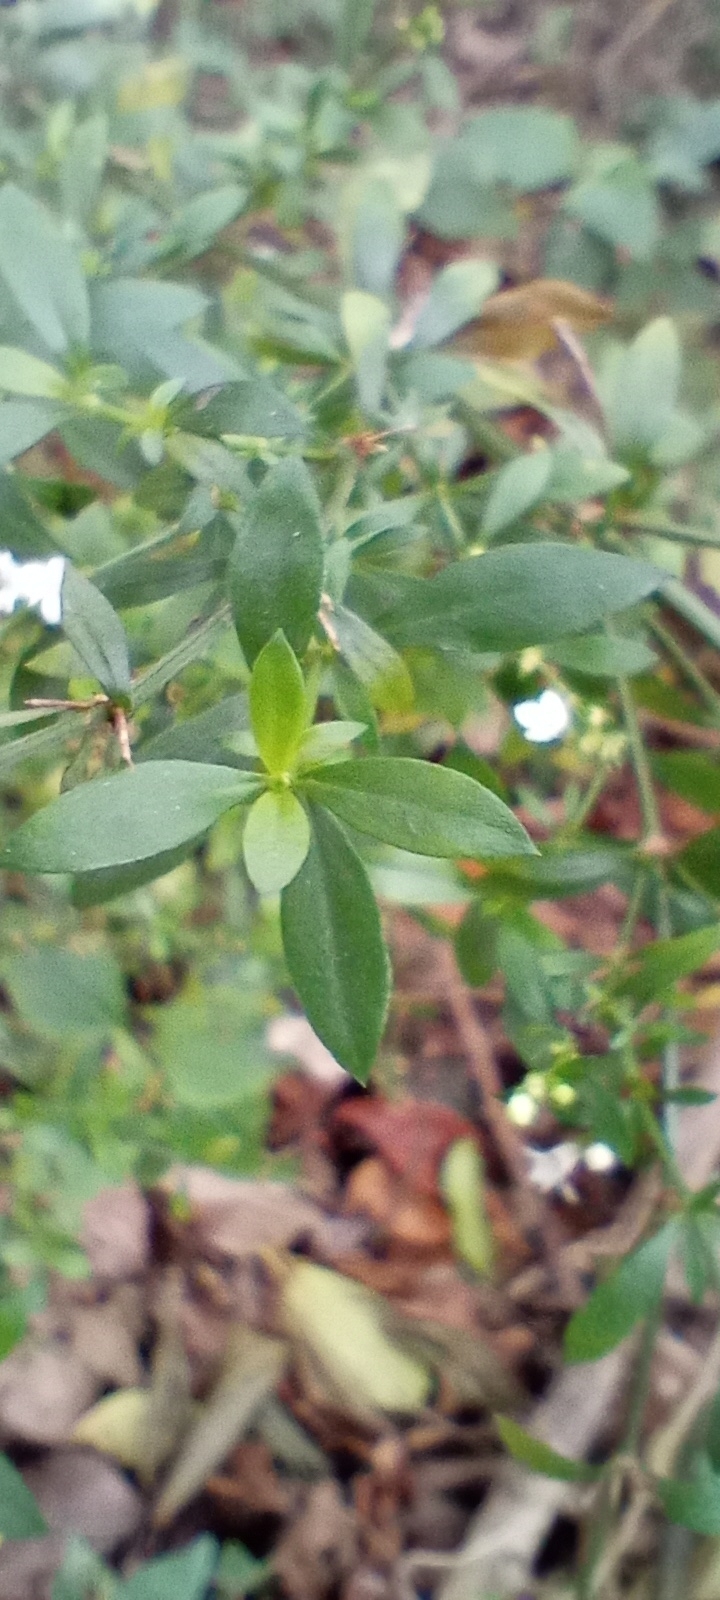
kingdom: Plantae
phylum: Tracheophyta
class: Magnoliopsida
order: Gentianales
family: Rubiaceae
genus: Galianthe
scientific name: Galianthe brasiliensis
